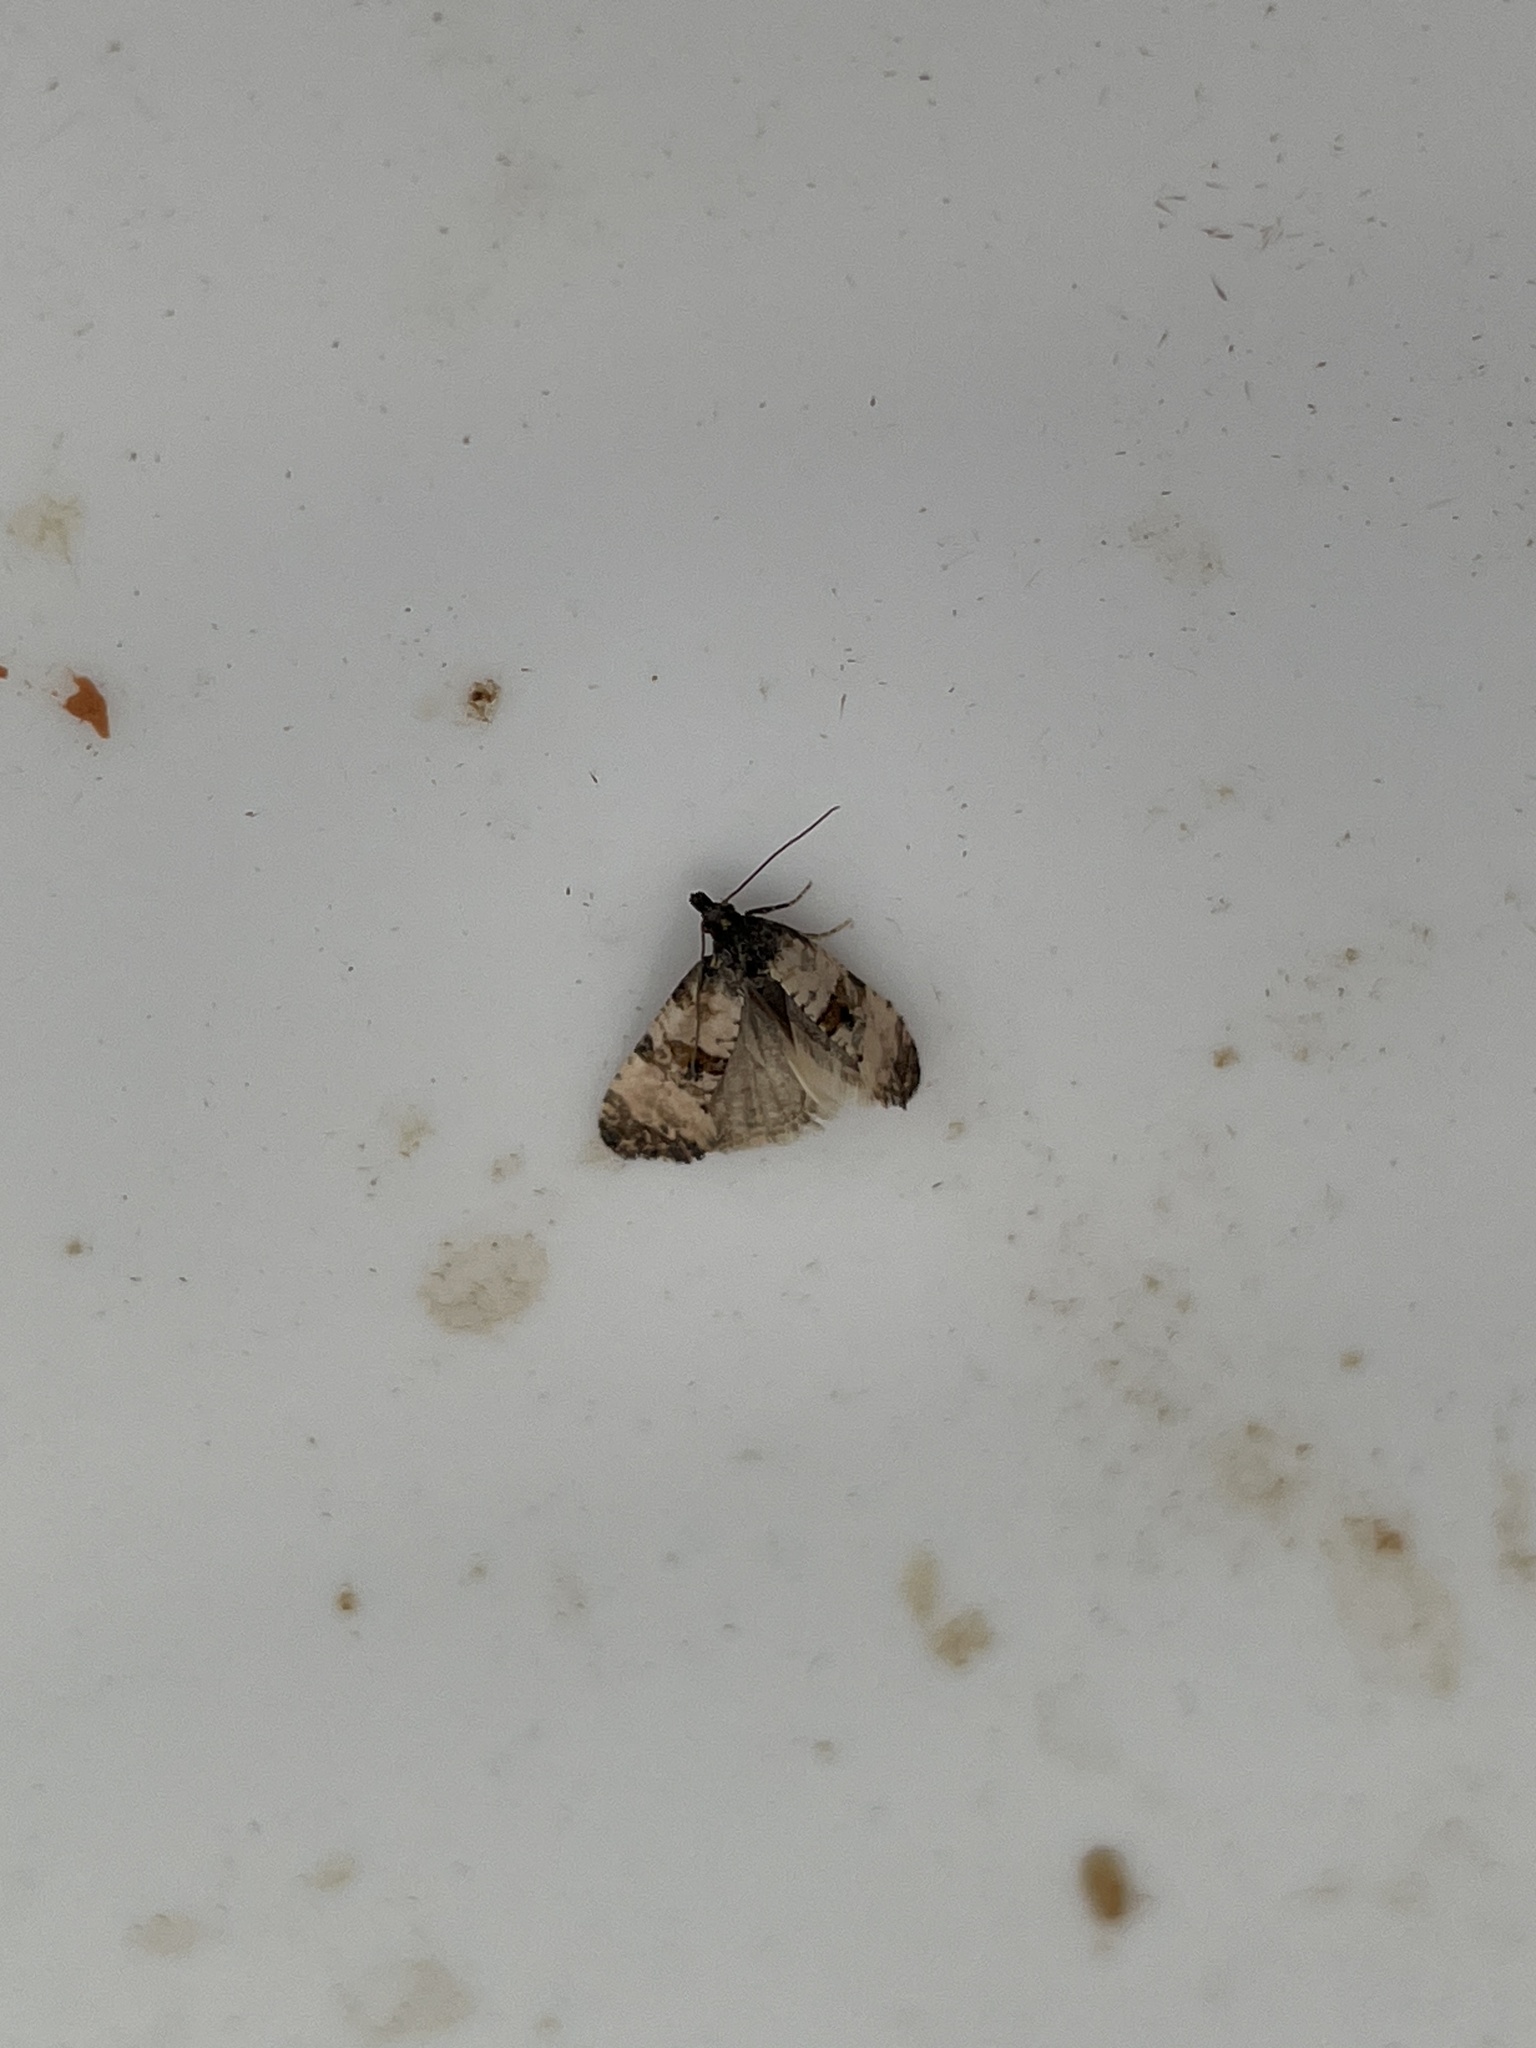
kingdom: Animalia
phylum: Arthropoda
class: Insecta
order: Lepidoptera
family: Tortricidae
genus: Cochylis
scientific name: Cochylis atricapitana
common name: Tortricid moth
